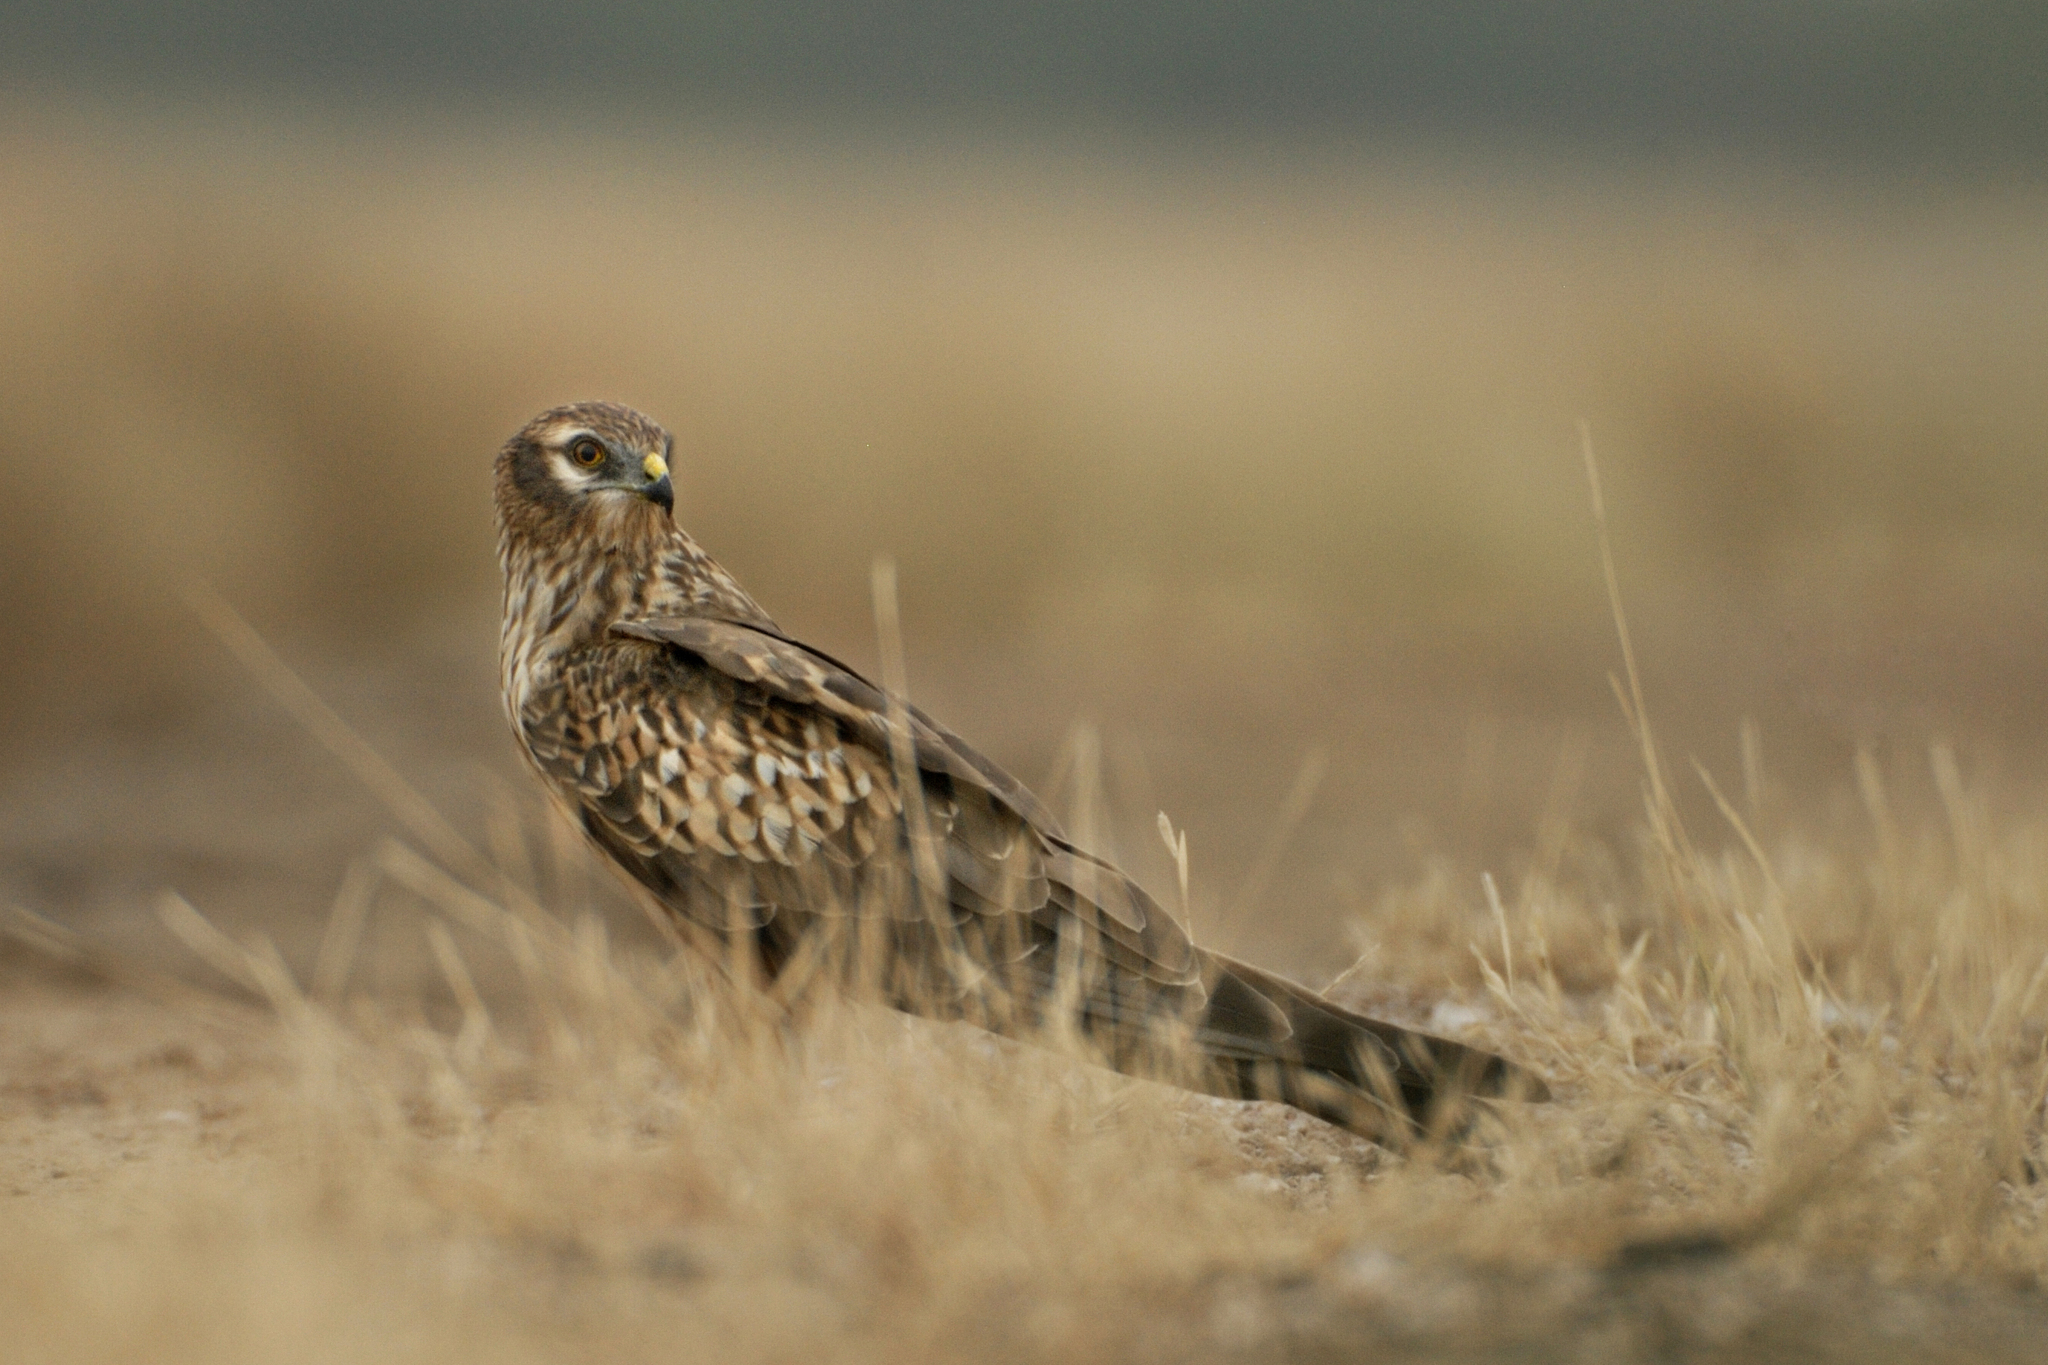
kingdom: Animalia
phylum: Chordata
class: Aves
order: Accipitriformes
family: Accipitridae
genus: Circus
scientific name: Circus pygargus
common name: Montagu's harrier
